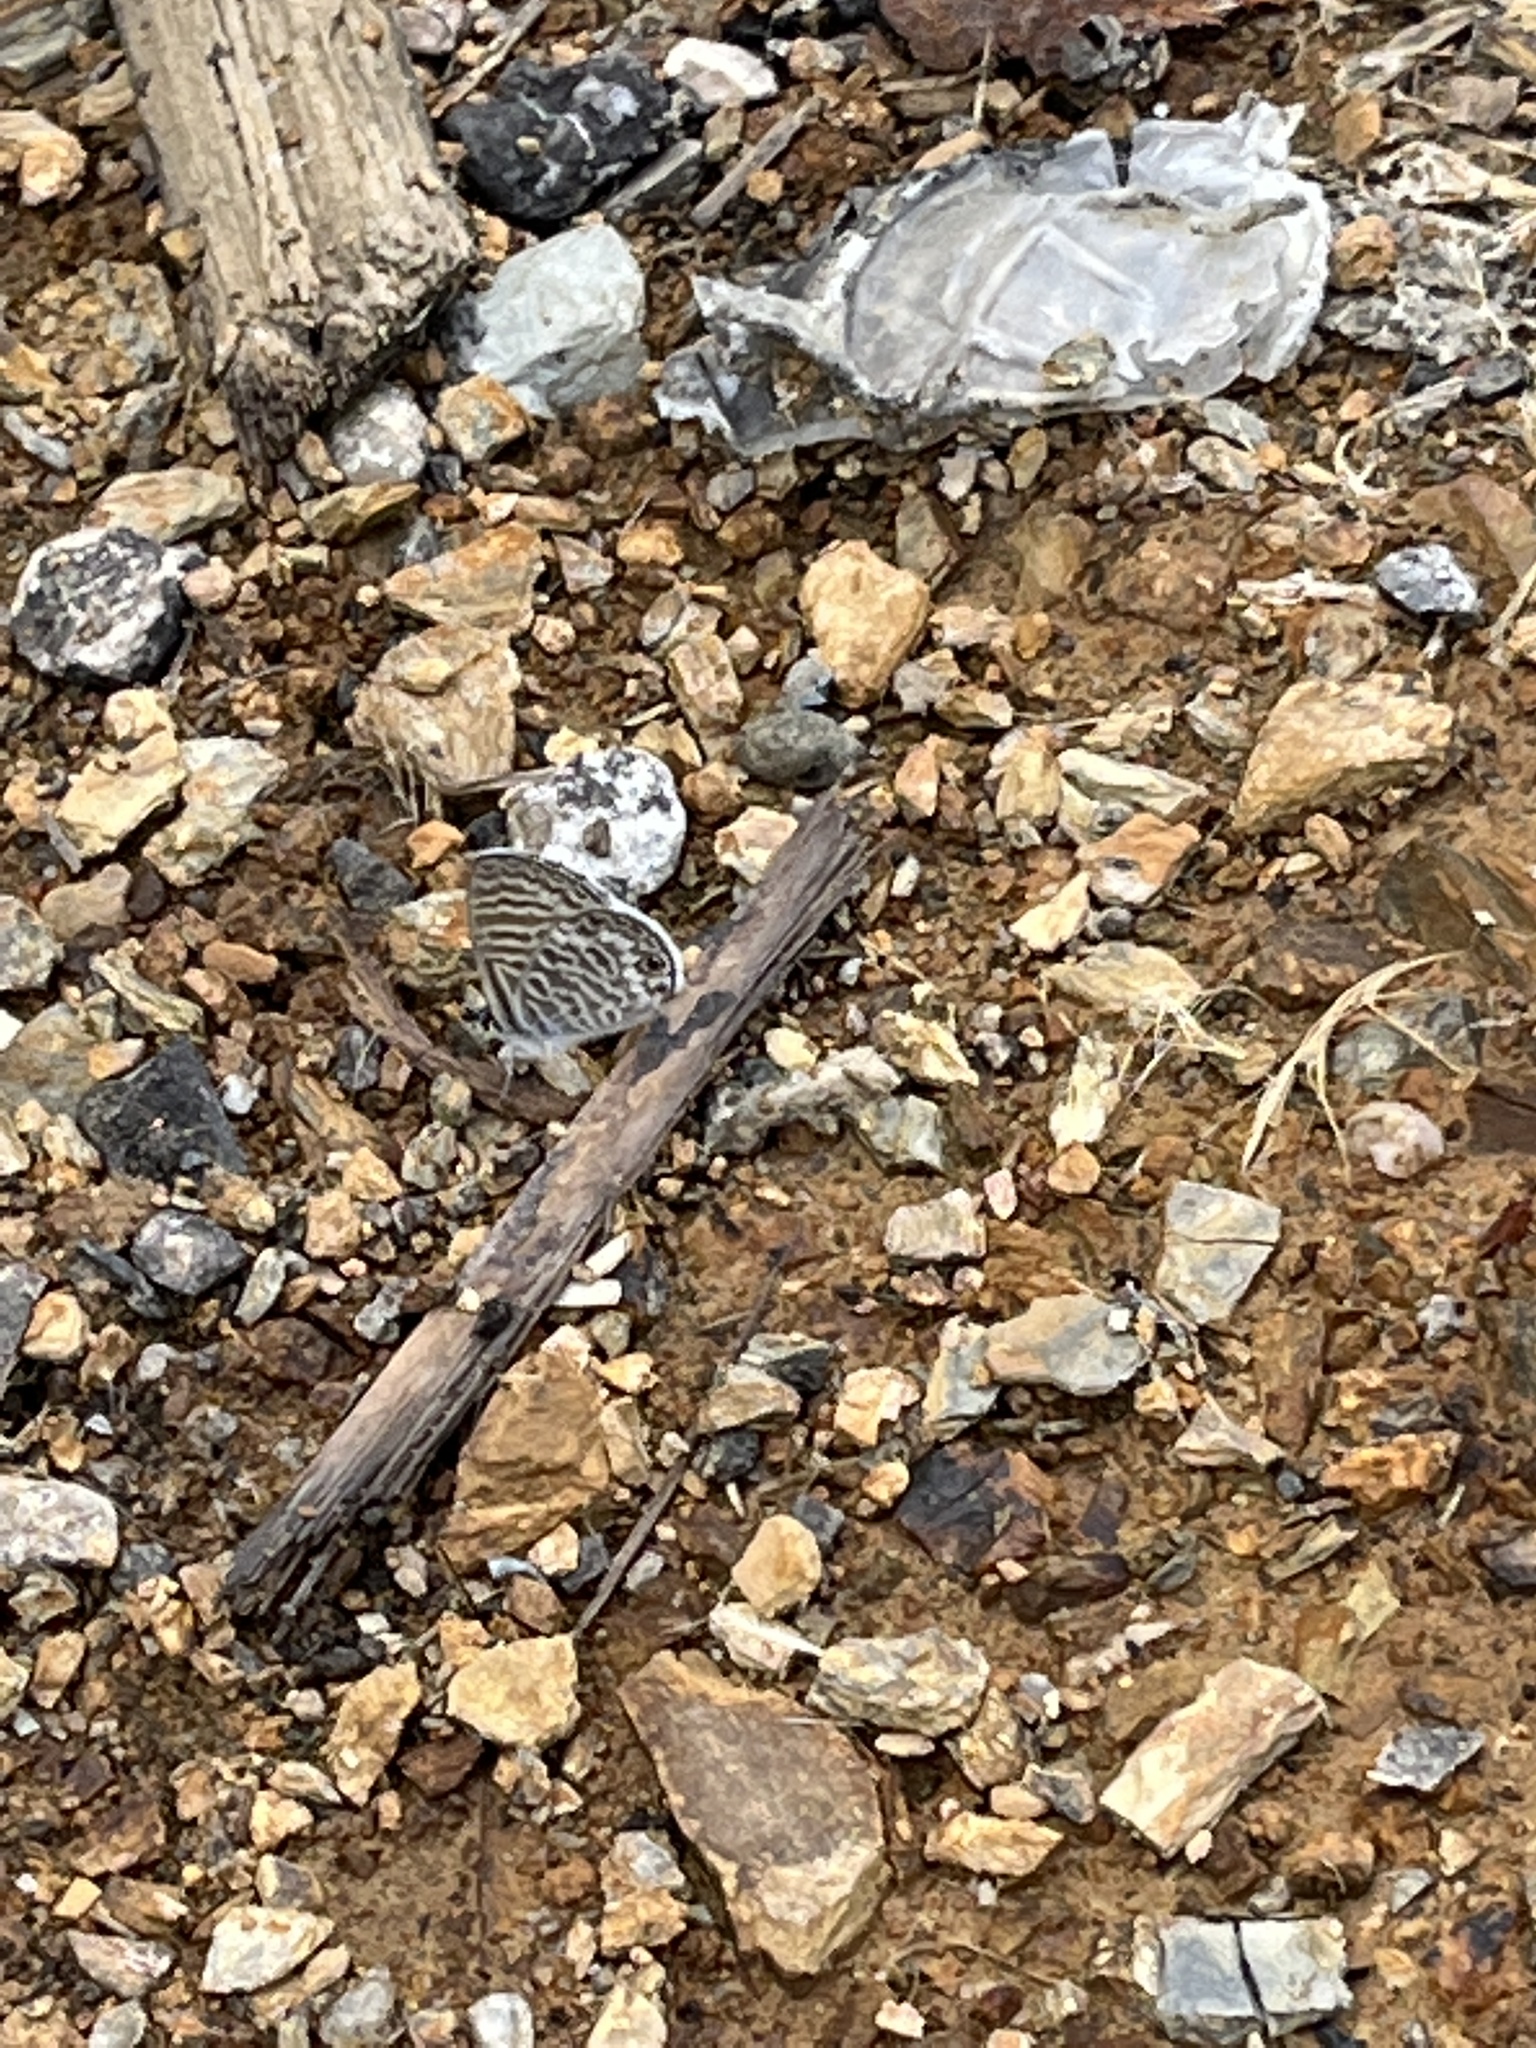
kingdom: Animalia
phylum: Arthropoda
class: Insecta
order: Lepidoptera
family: Lycaenidae
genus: Leptotes
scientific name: Leptotes marina
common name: Marine blue
